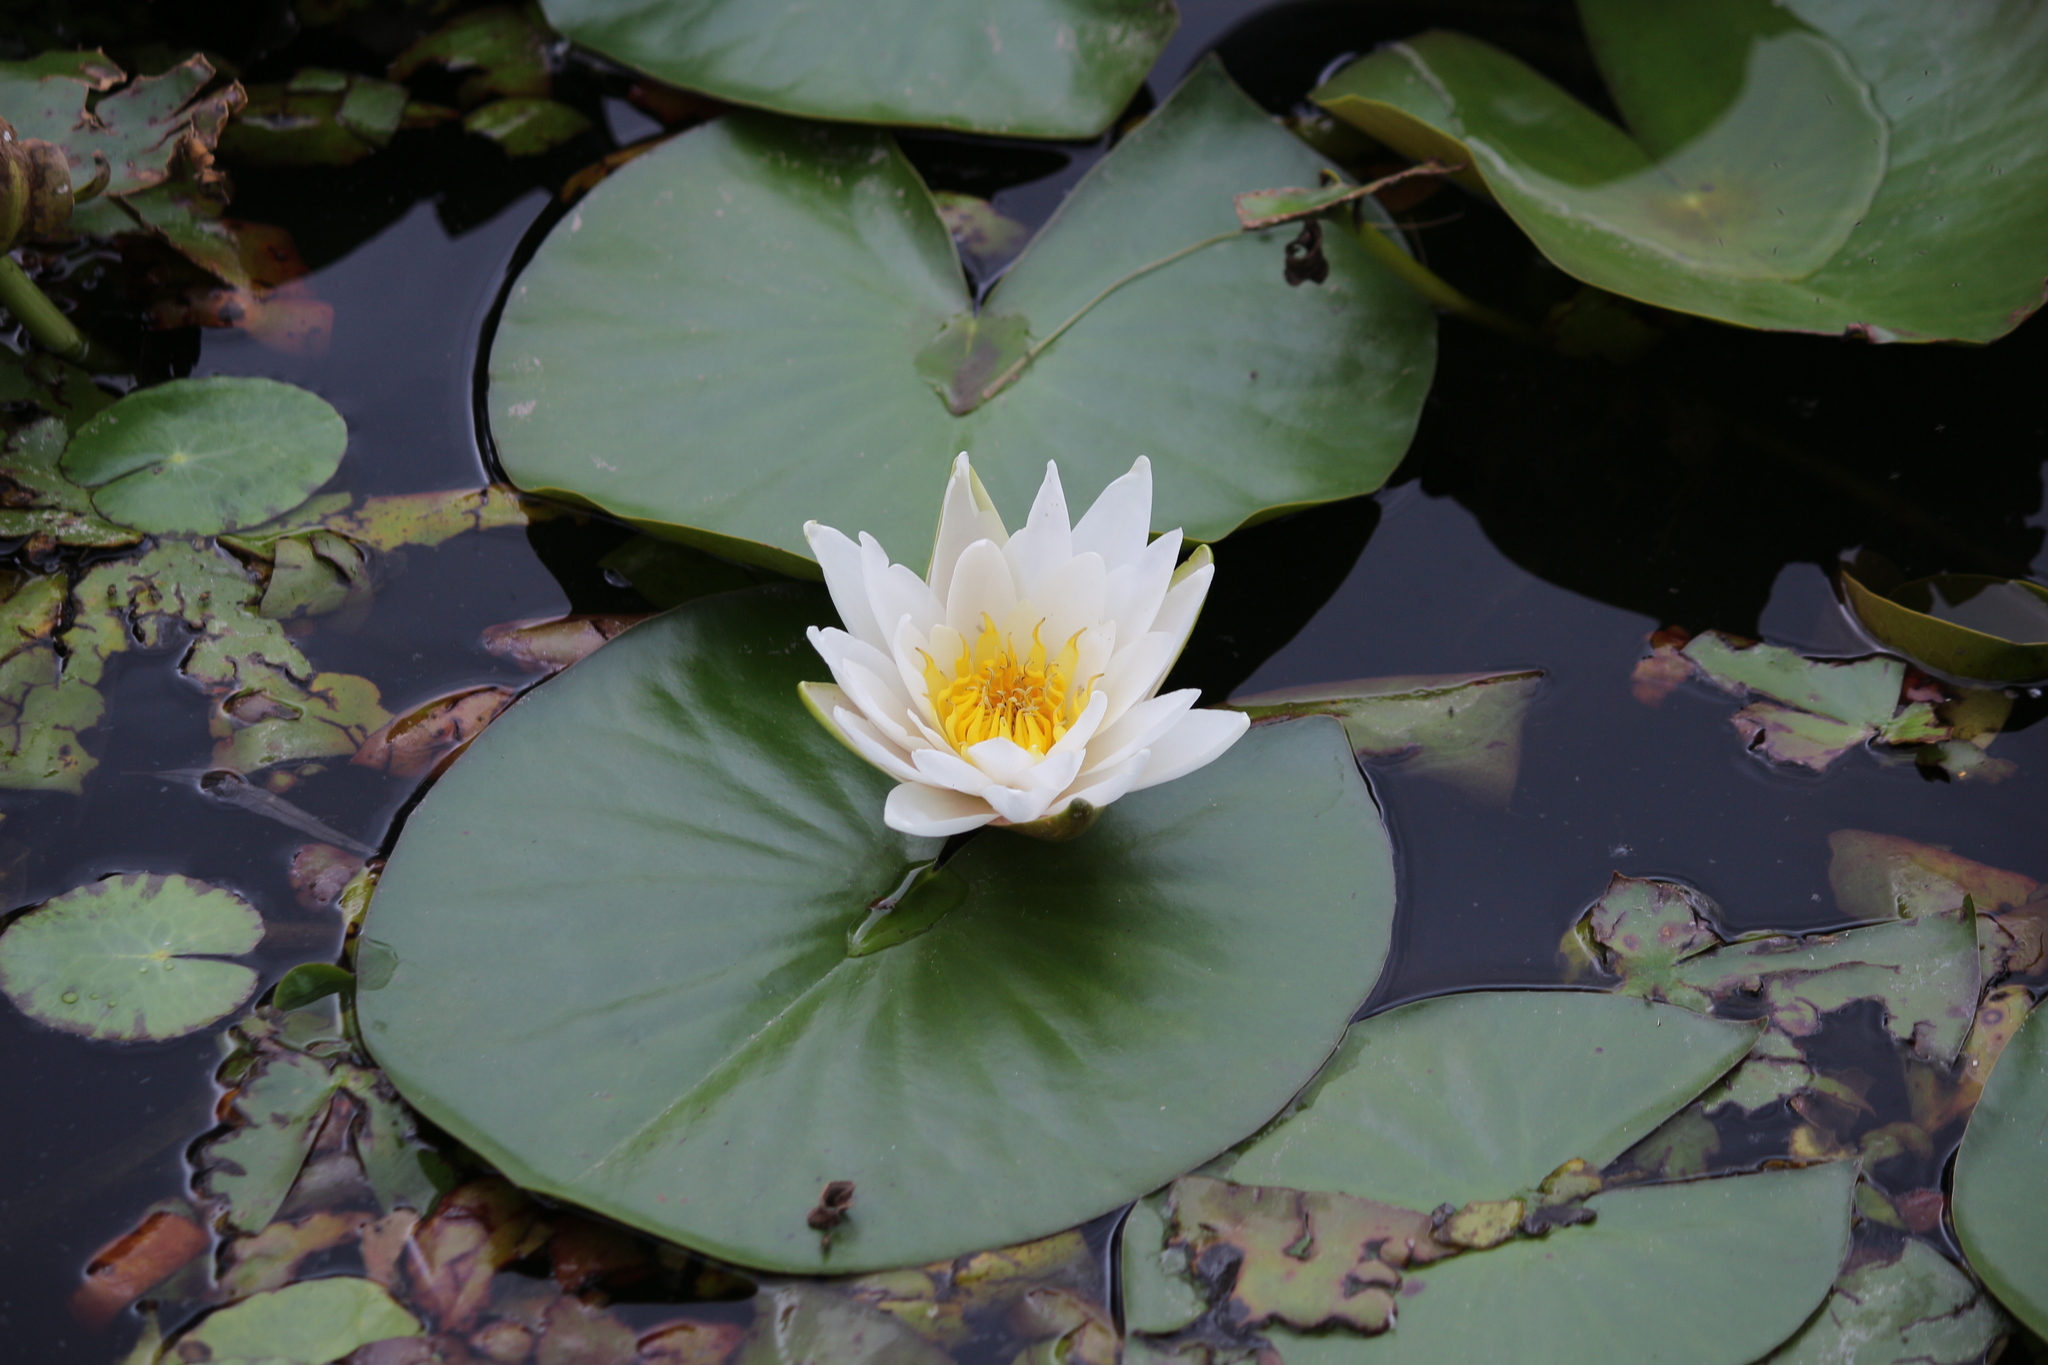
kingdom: Plantae
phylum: Tracheophyta
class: Magnoliopsida
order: Nymphaeales
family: Nymphaeaceae
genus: Nymphaea
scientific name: Nymphaea alba
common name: White water-lily
